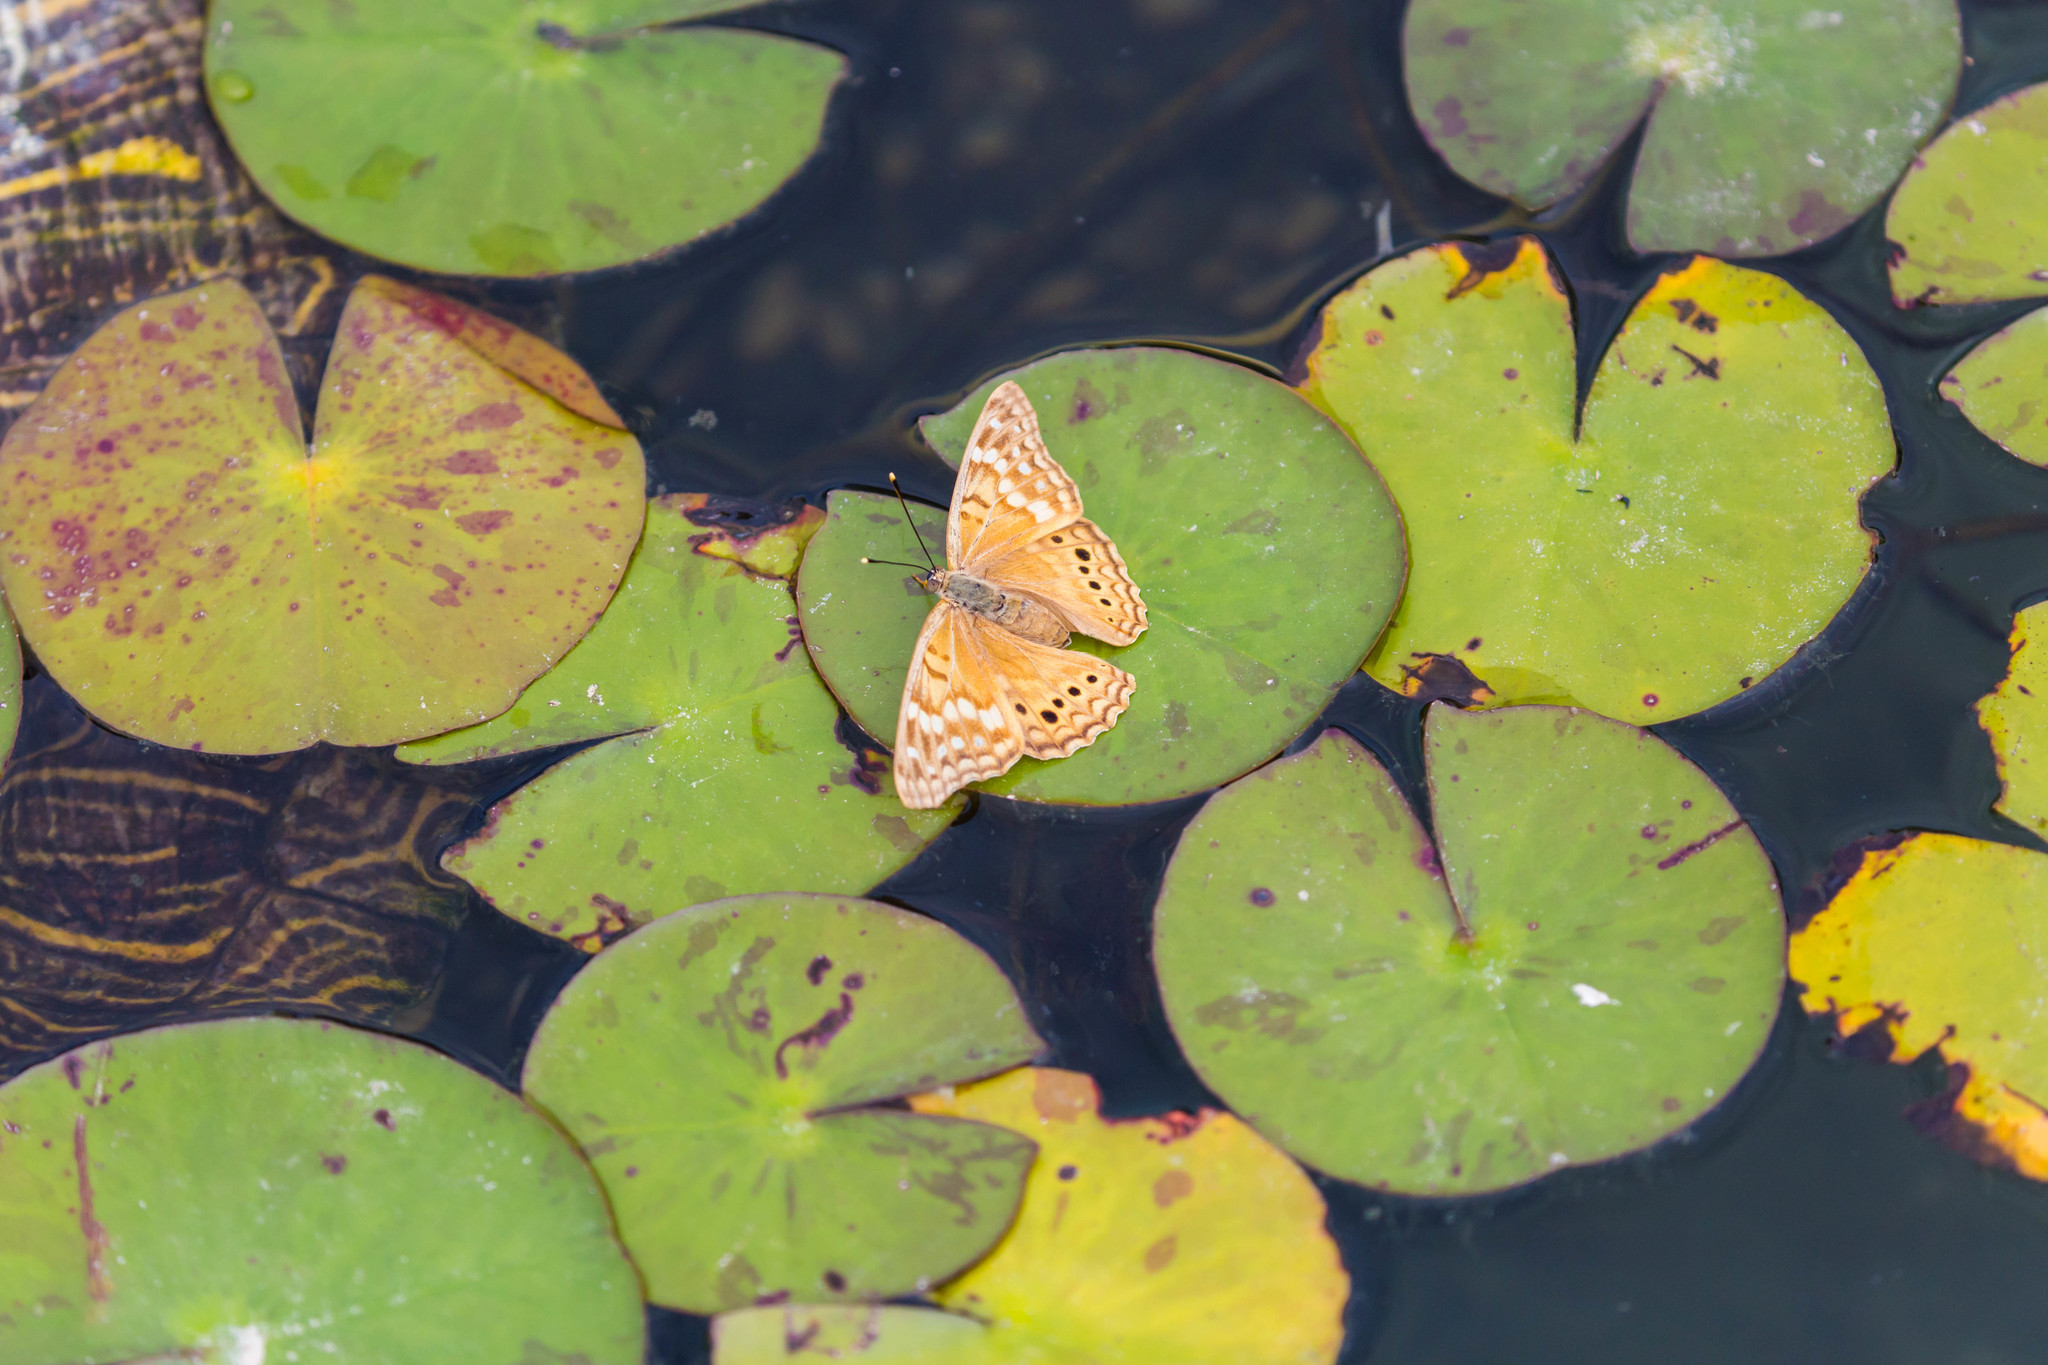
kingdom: Animalia
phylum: Arthropoda
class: Insecta
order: Lepidoptera
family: Nymphalidae
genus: Asterocampa
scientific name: Asterocampa clyton
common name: Tawny emperor
